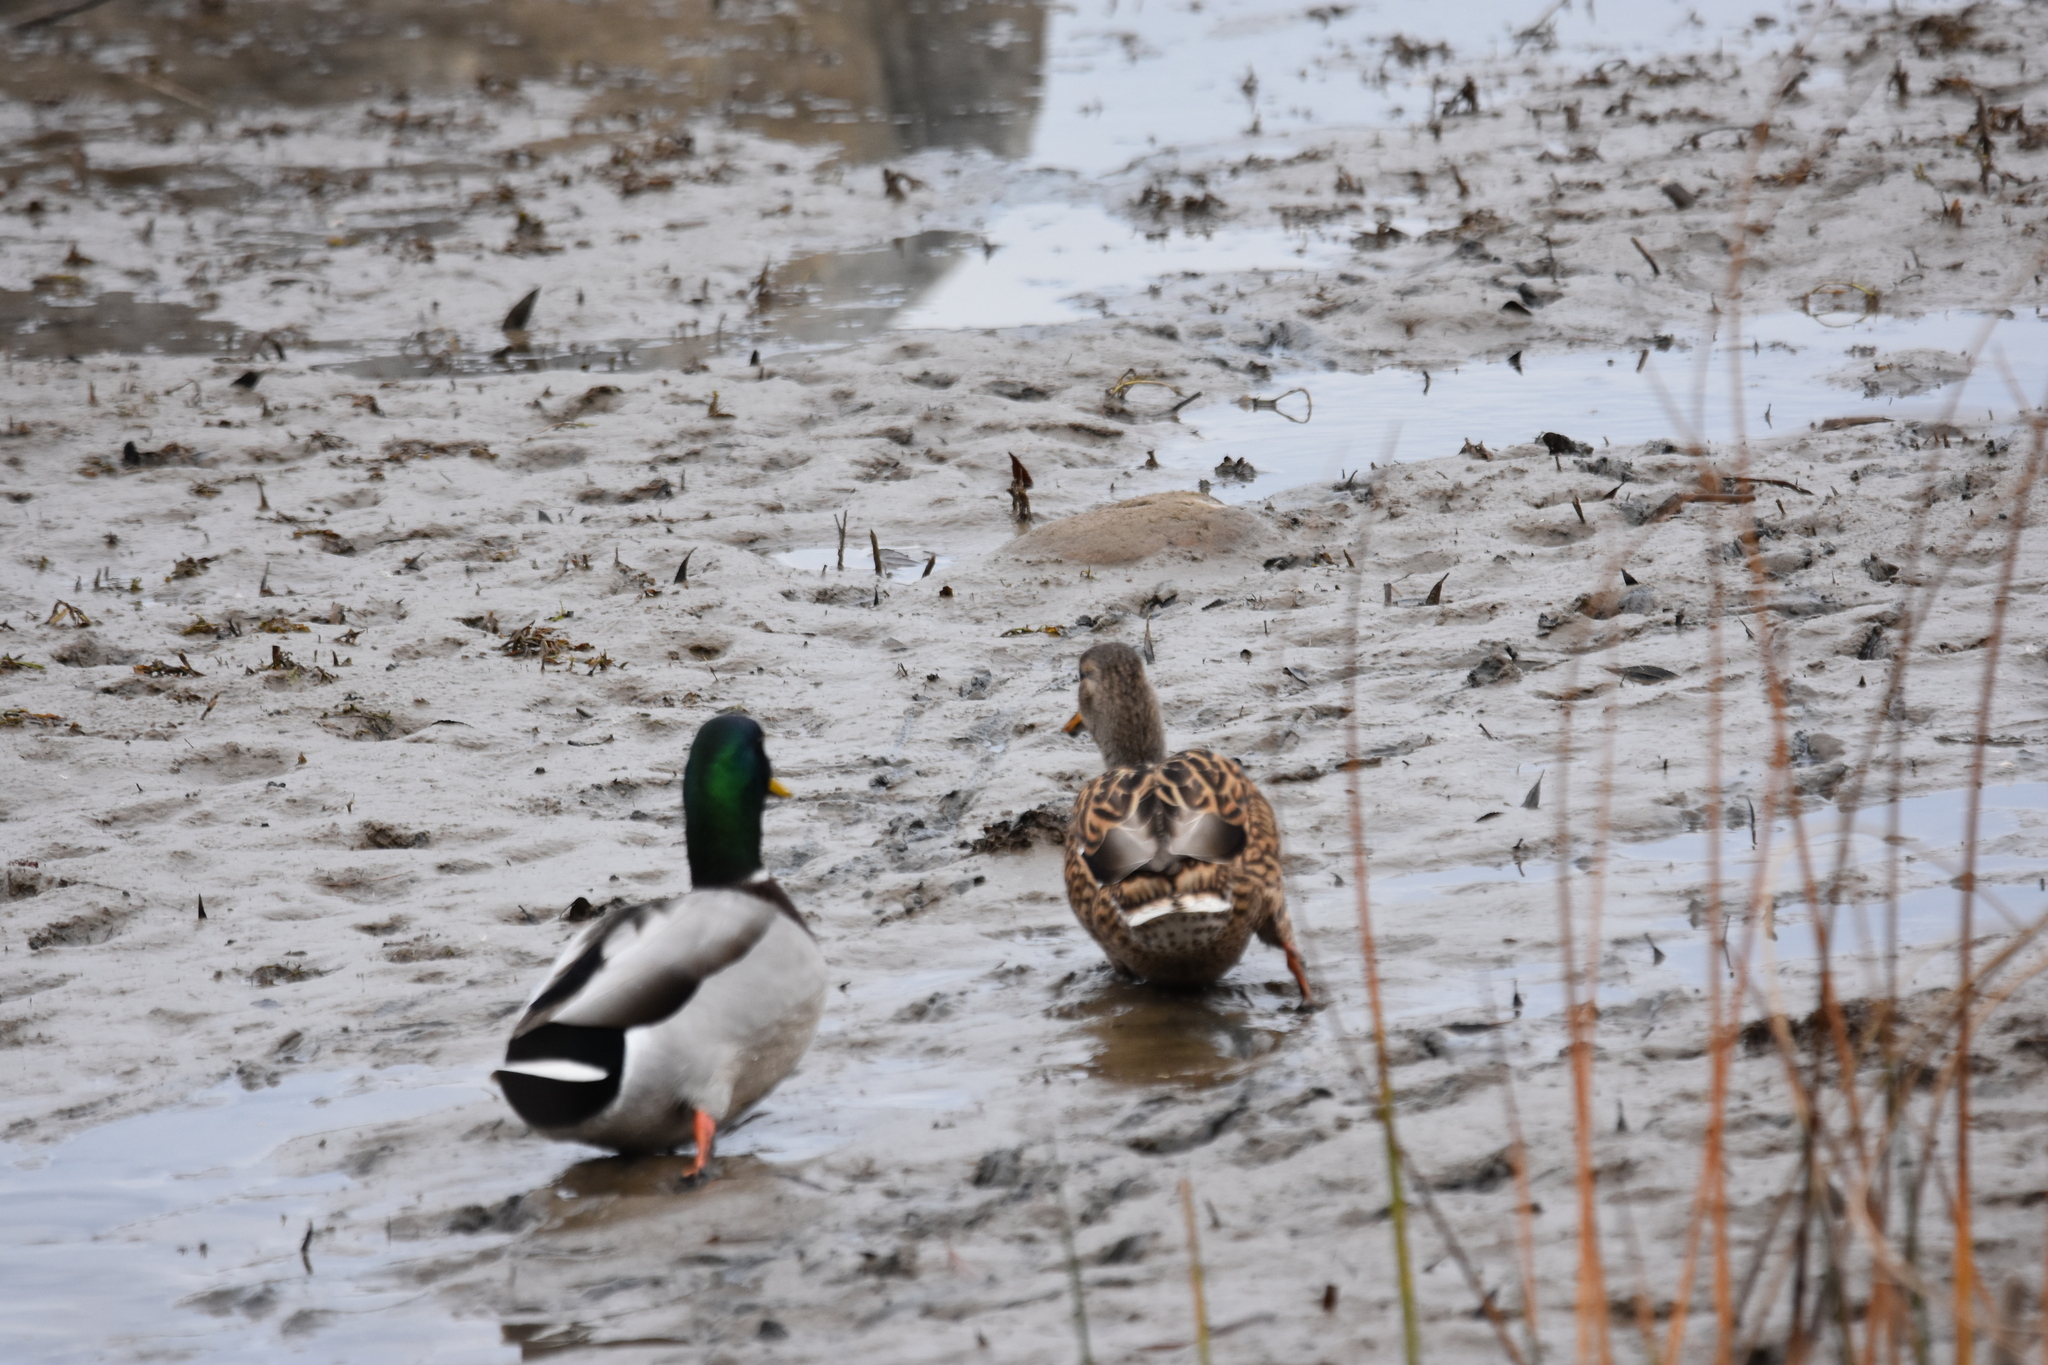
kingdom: Animalia
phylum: Chordata
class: Aves
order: Anseriformes
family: Anatidae
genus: Anas
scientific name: Anas platyrhynchos
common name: Mallard
